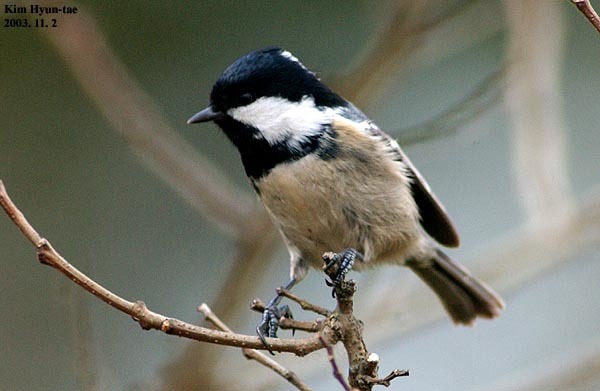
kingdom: Animalia
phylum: Chordata
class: Aves
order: Passeriformes
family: Paridae
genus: Periparus
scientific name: Periparus ater
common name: Coal tit
